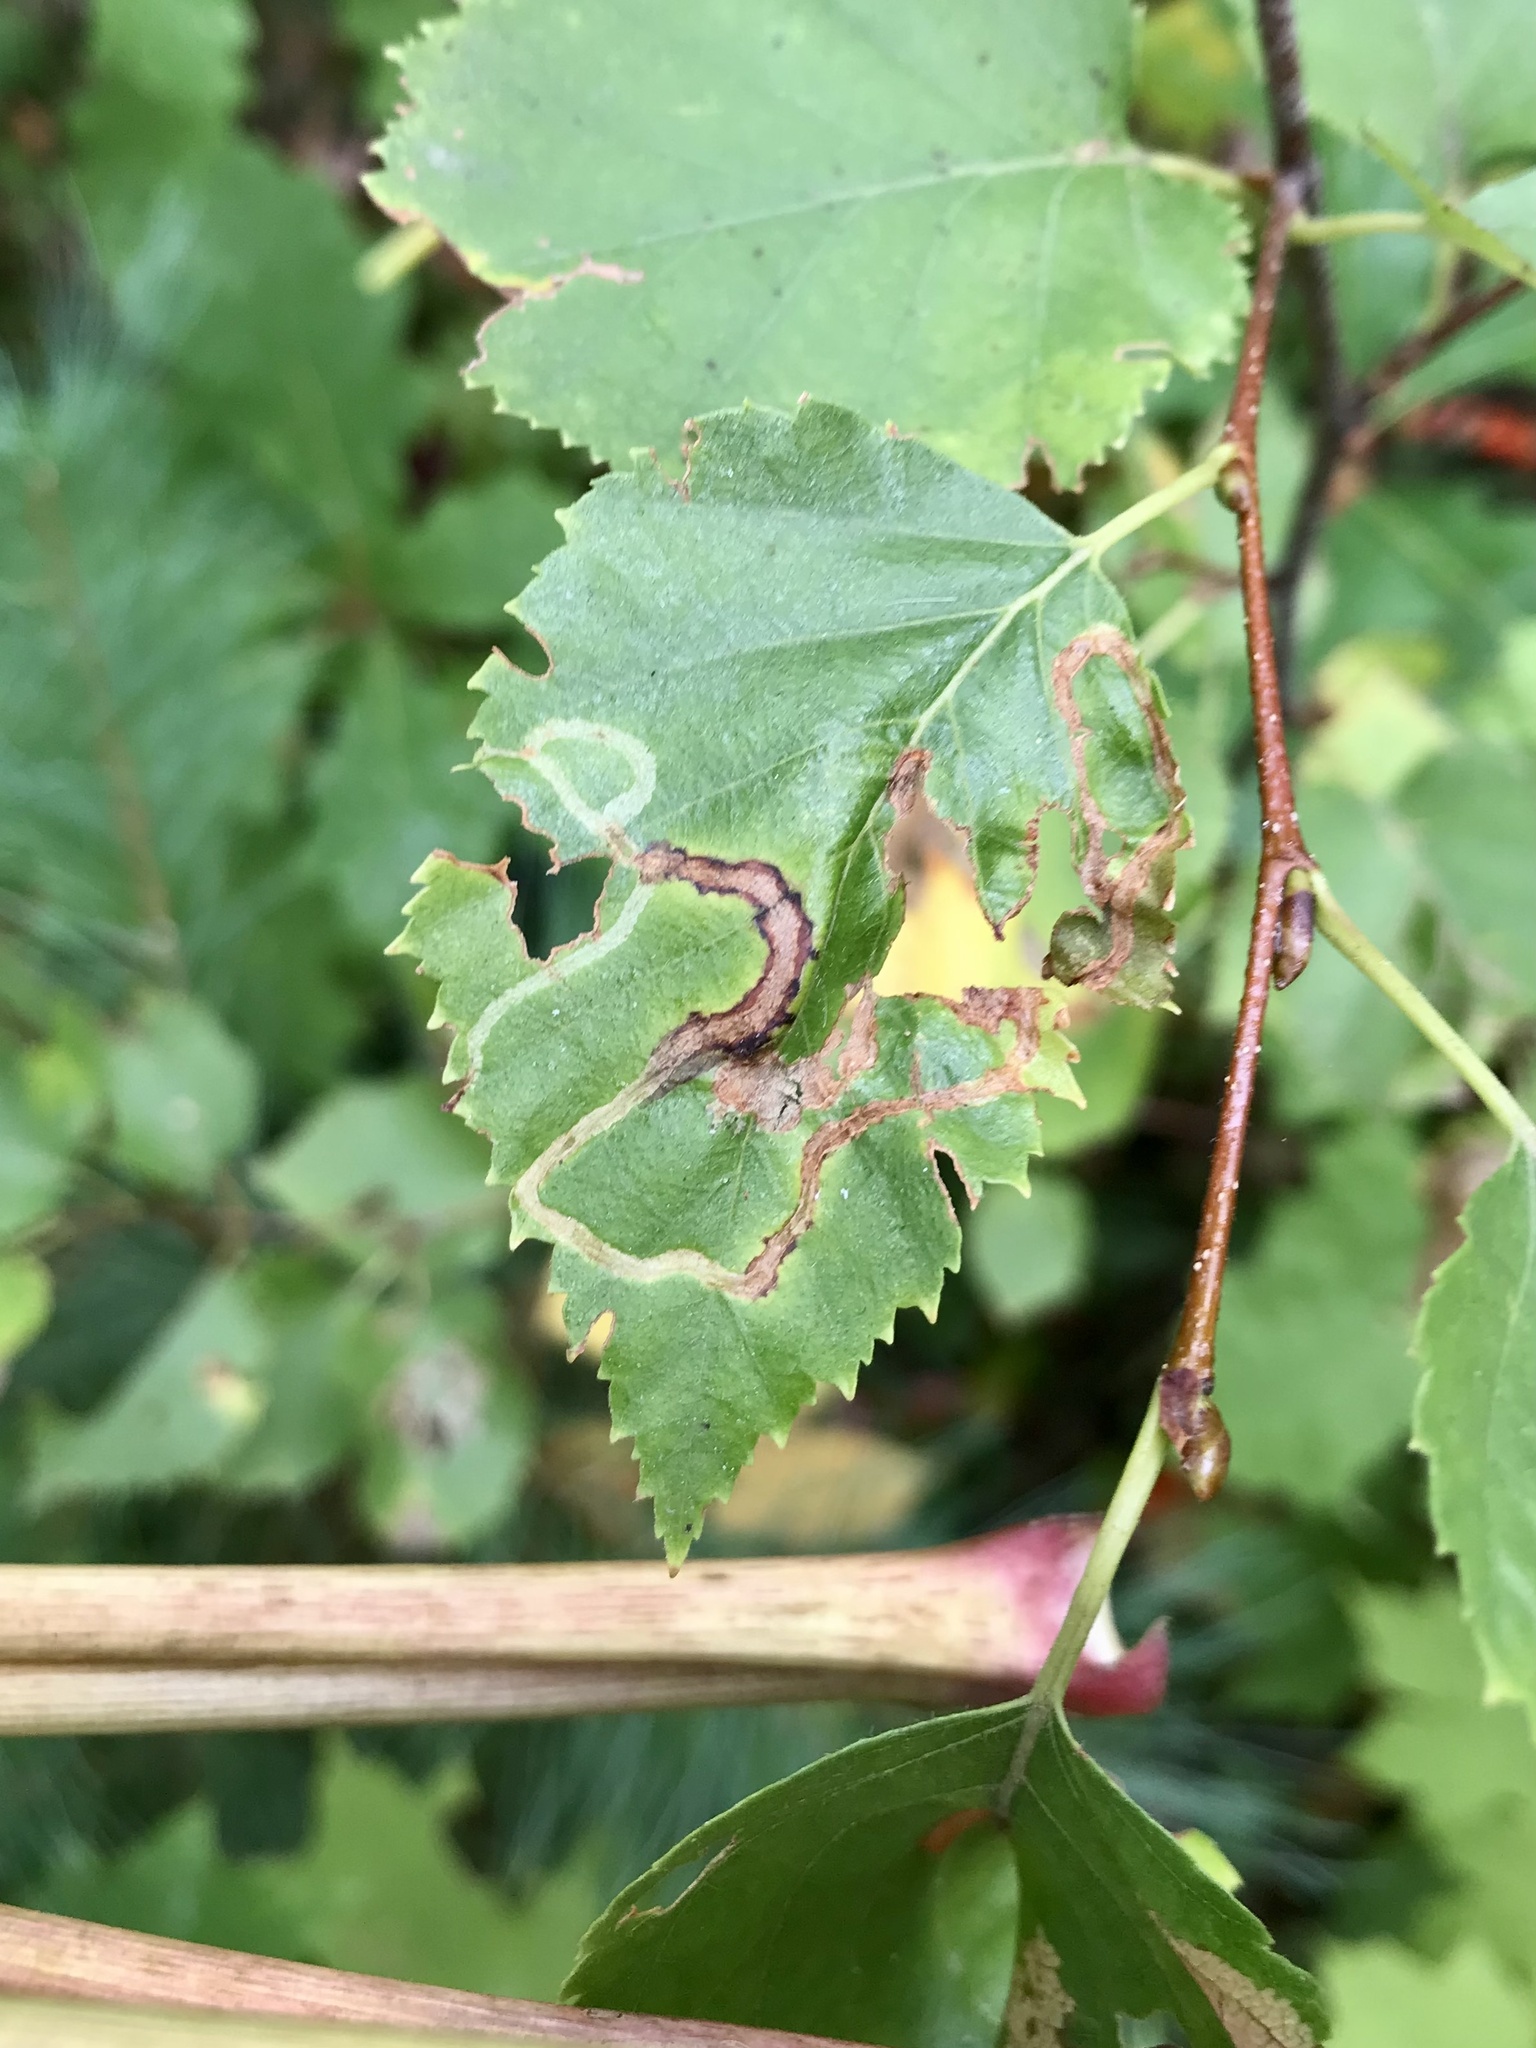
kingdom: Animalia
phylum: Arthropoda
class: Insecta
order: Diptera
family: Agromyzidae
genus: Agromyza
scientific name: Agromyza alnibetulae
